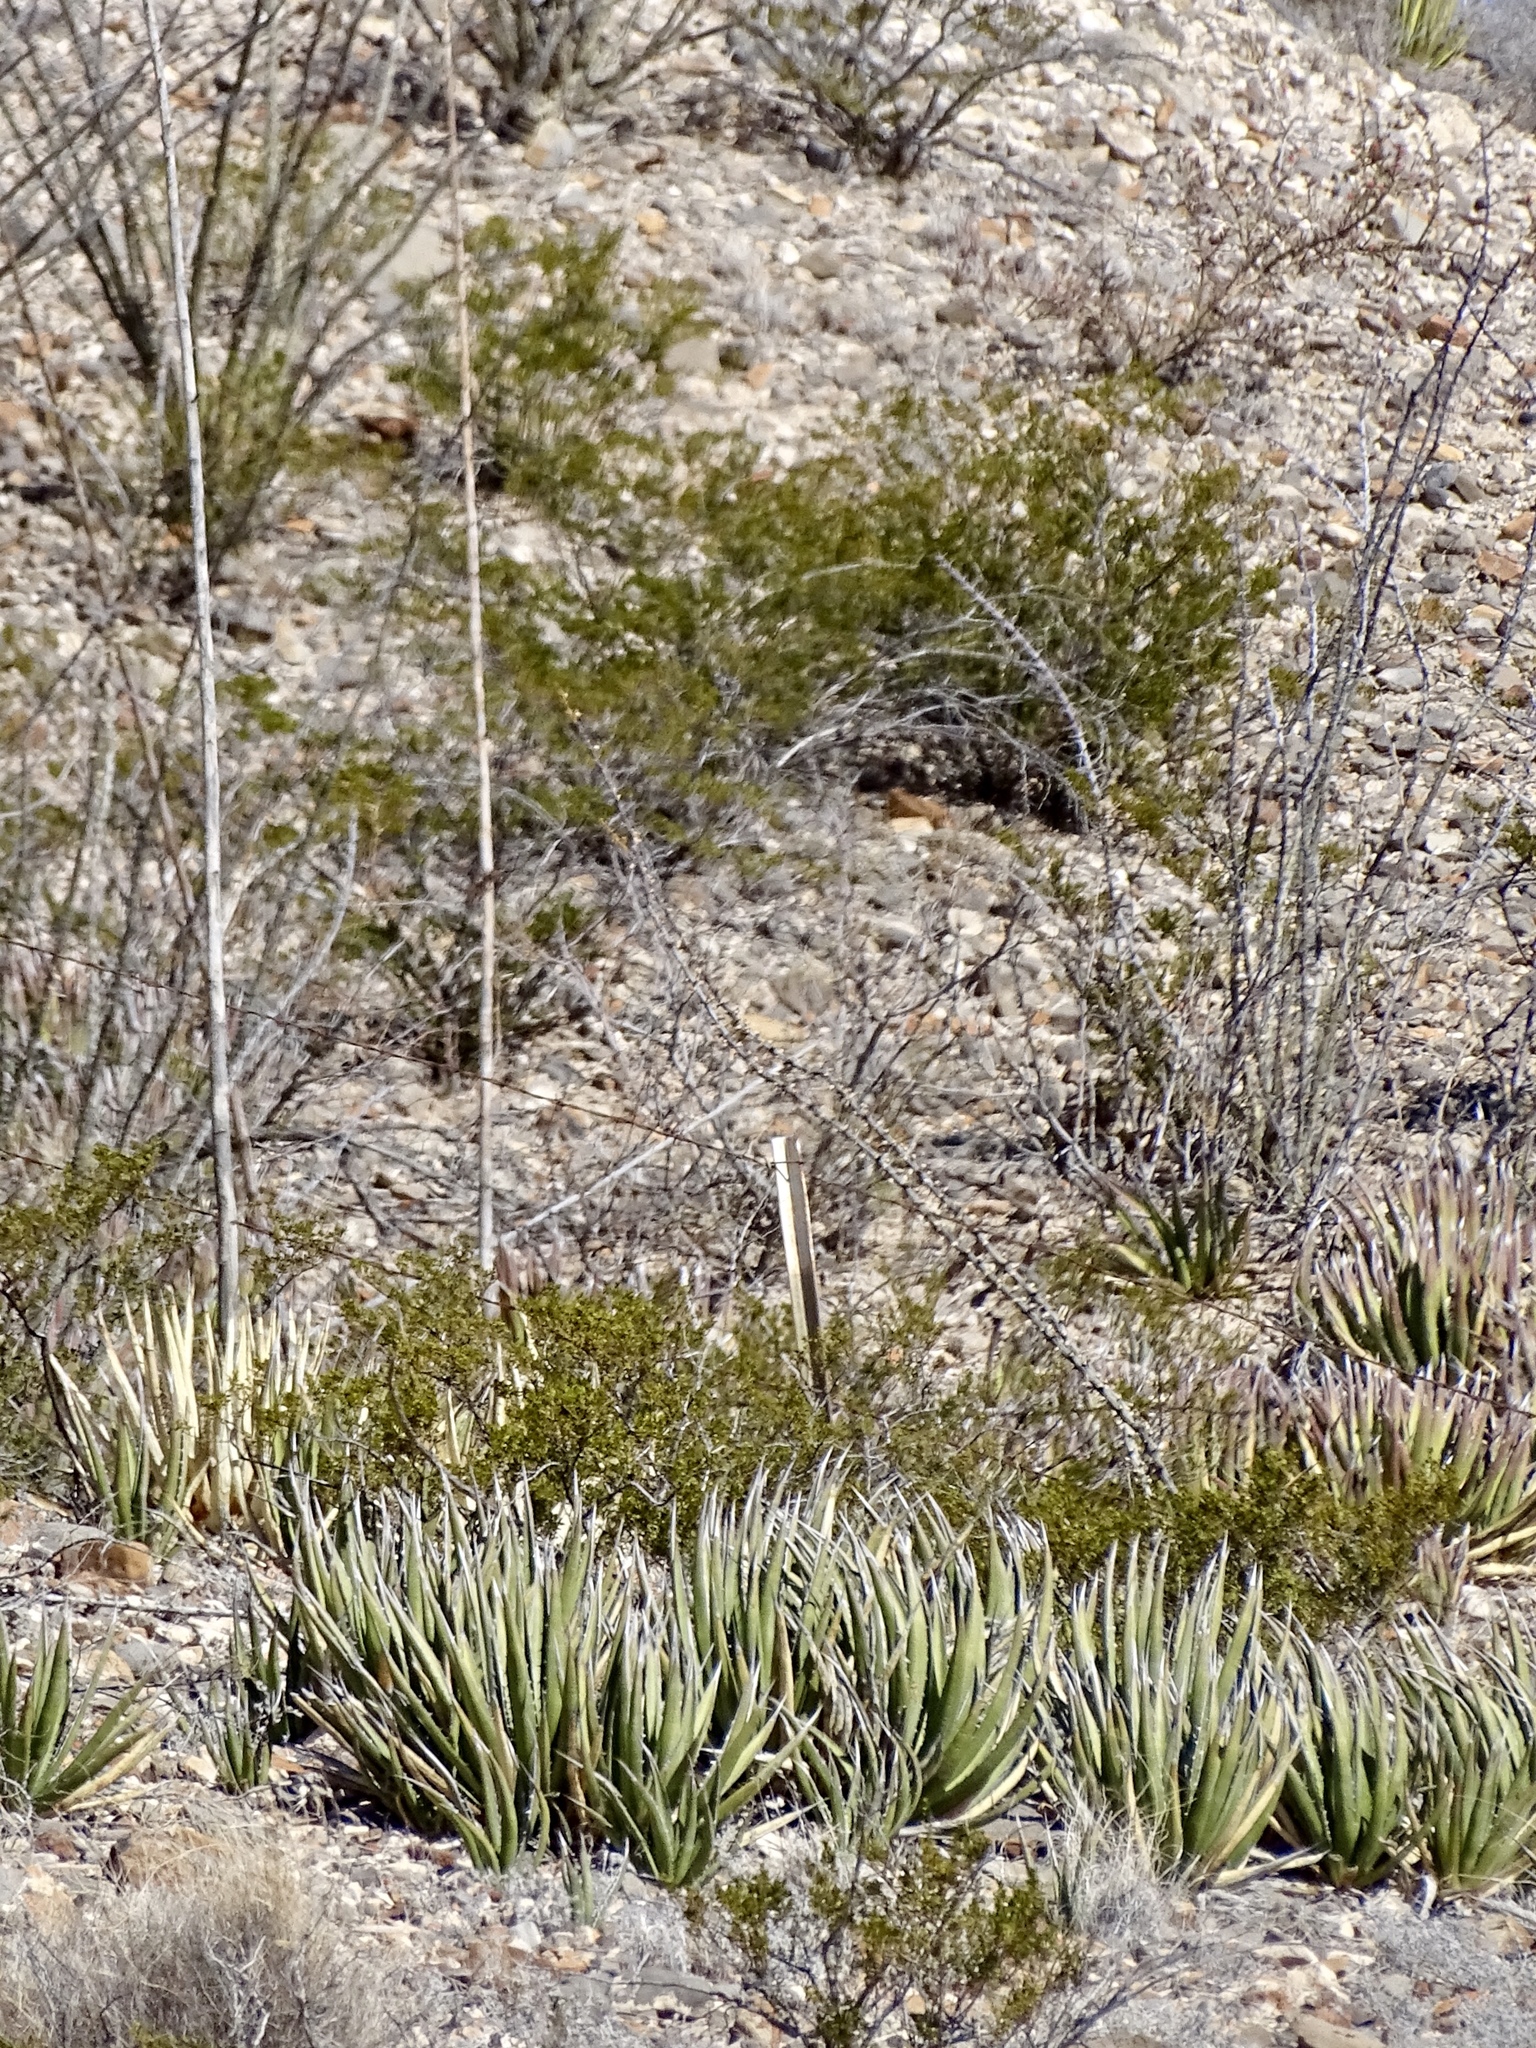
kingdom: Plantae
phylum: Tracheophyta
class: Liliopsida
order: Asparagales
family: Asparagaceae
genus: Agave
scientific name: Agave lechuguilla
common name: Lecheguilla agave
